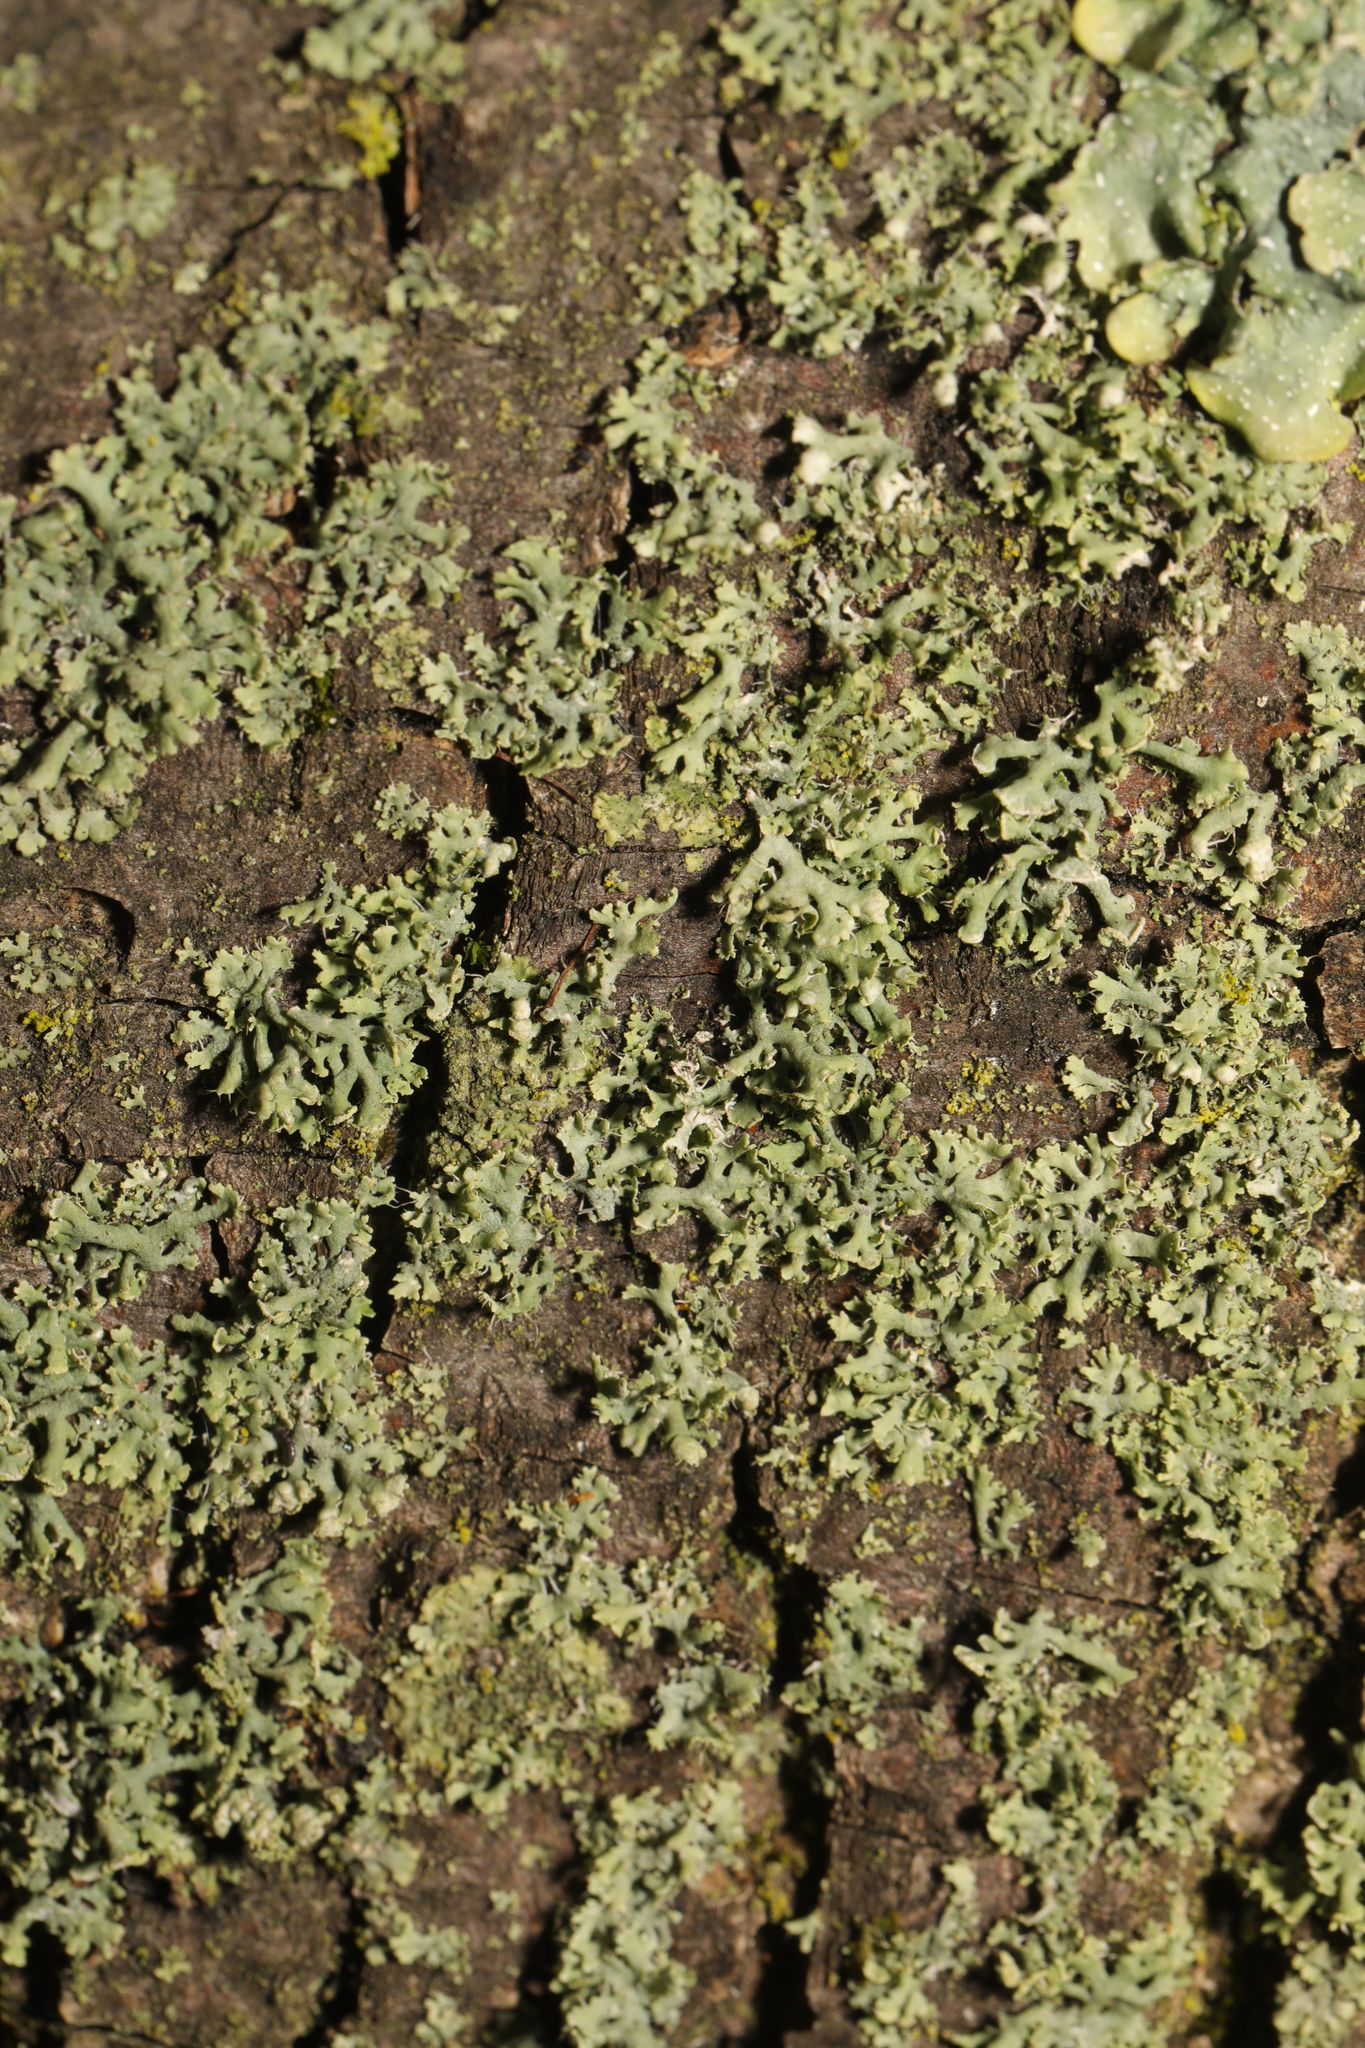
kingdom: Fungi
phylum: Ascomycota
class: Lecanoromycetes
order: Caliciales
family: Physciaceae
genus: Physcia
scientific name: Physcia tenella
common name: Fringed rosette lichen
